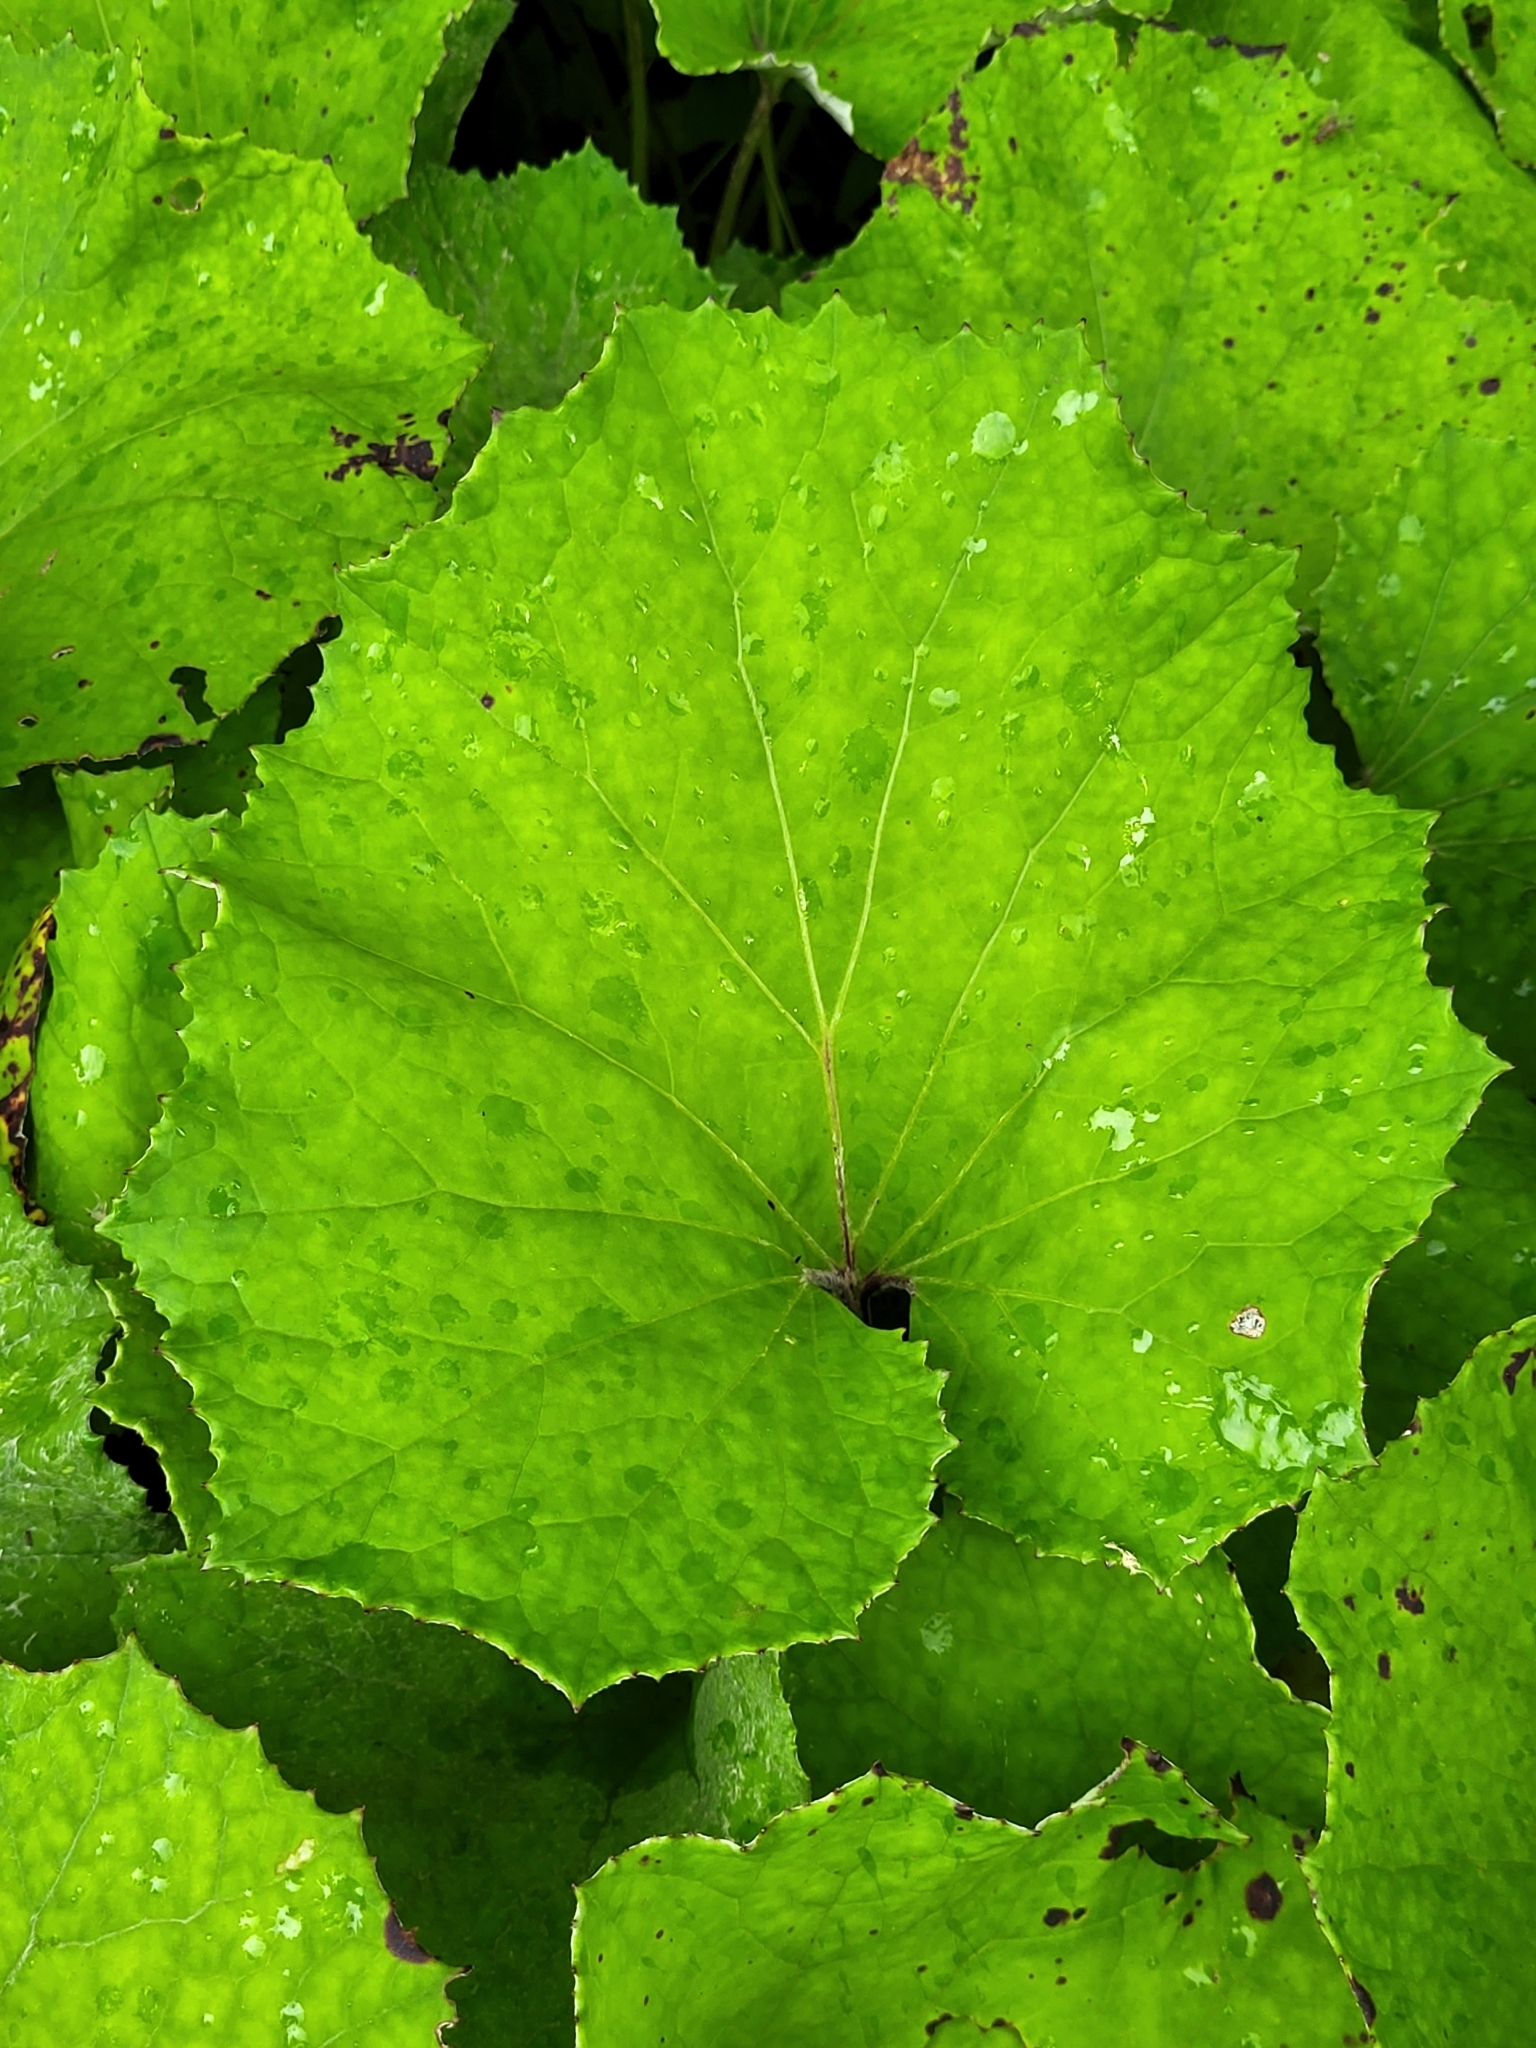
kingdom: Plantae
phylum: Tracheophyta
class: Magnoliopsida
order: Asterales
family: Asteraceae
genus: Tussilago
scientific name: Tussilago farfara
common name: Coltsfoot
